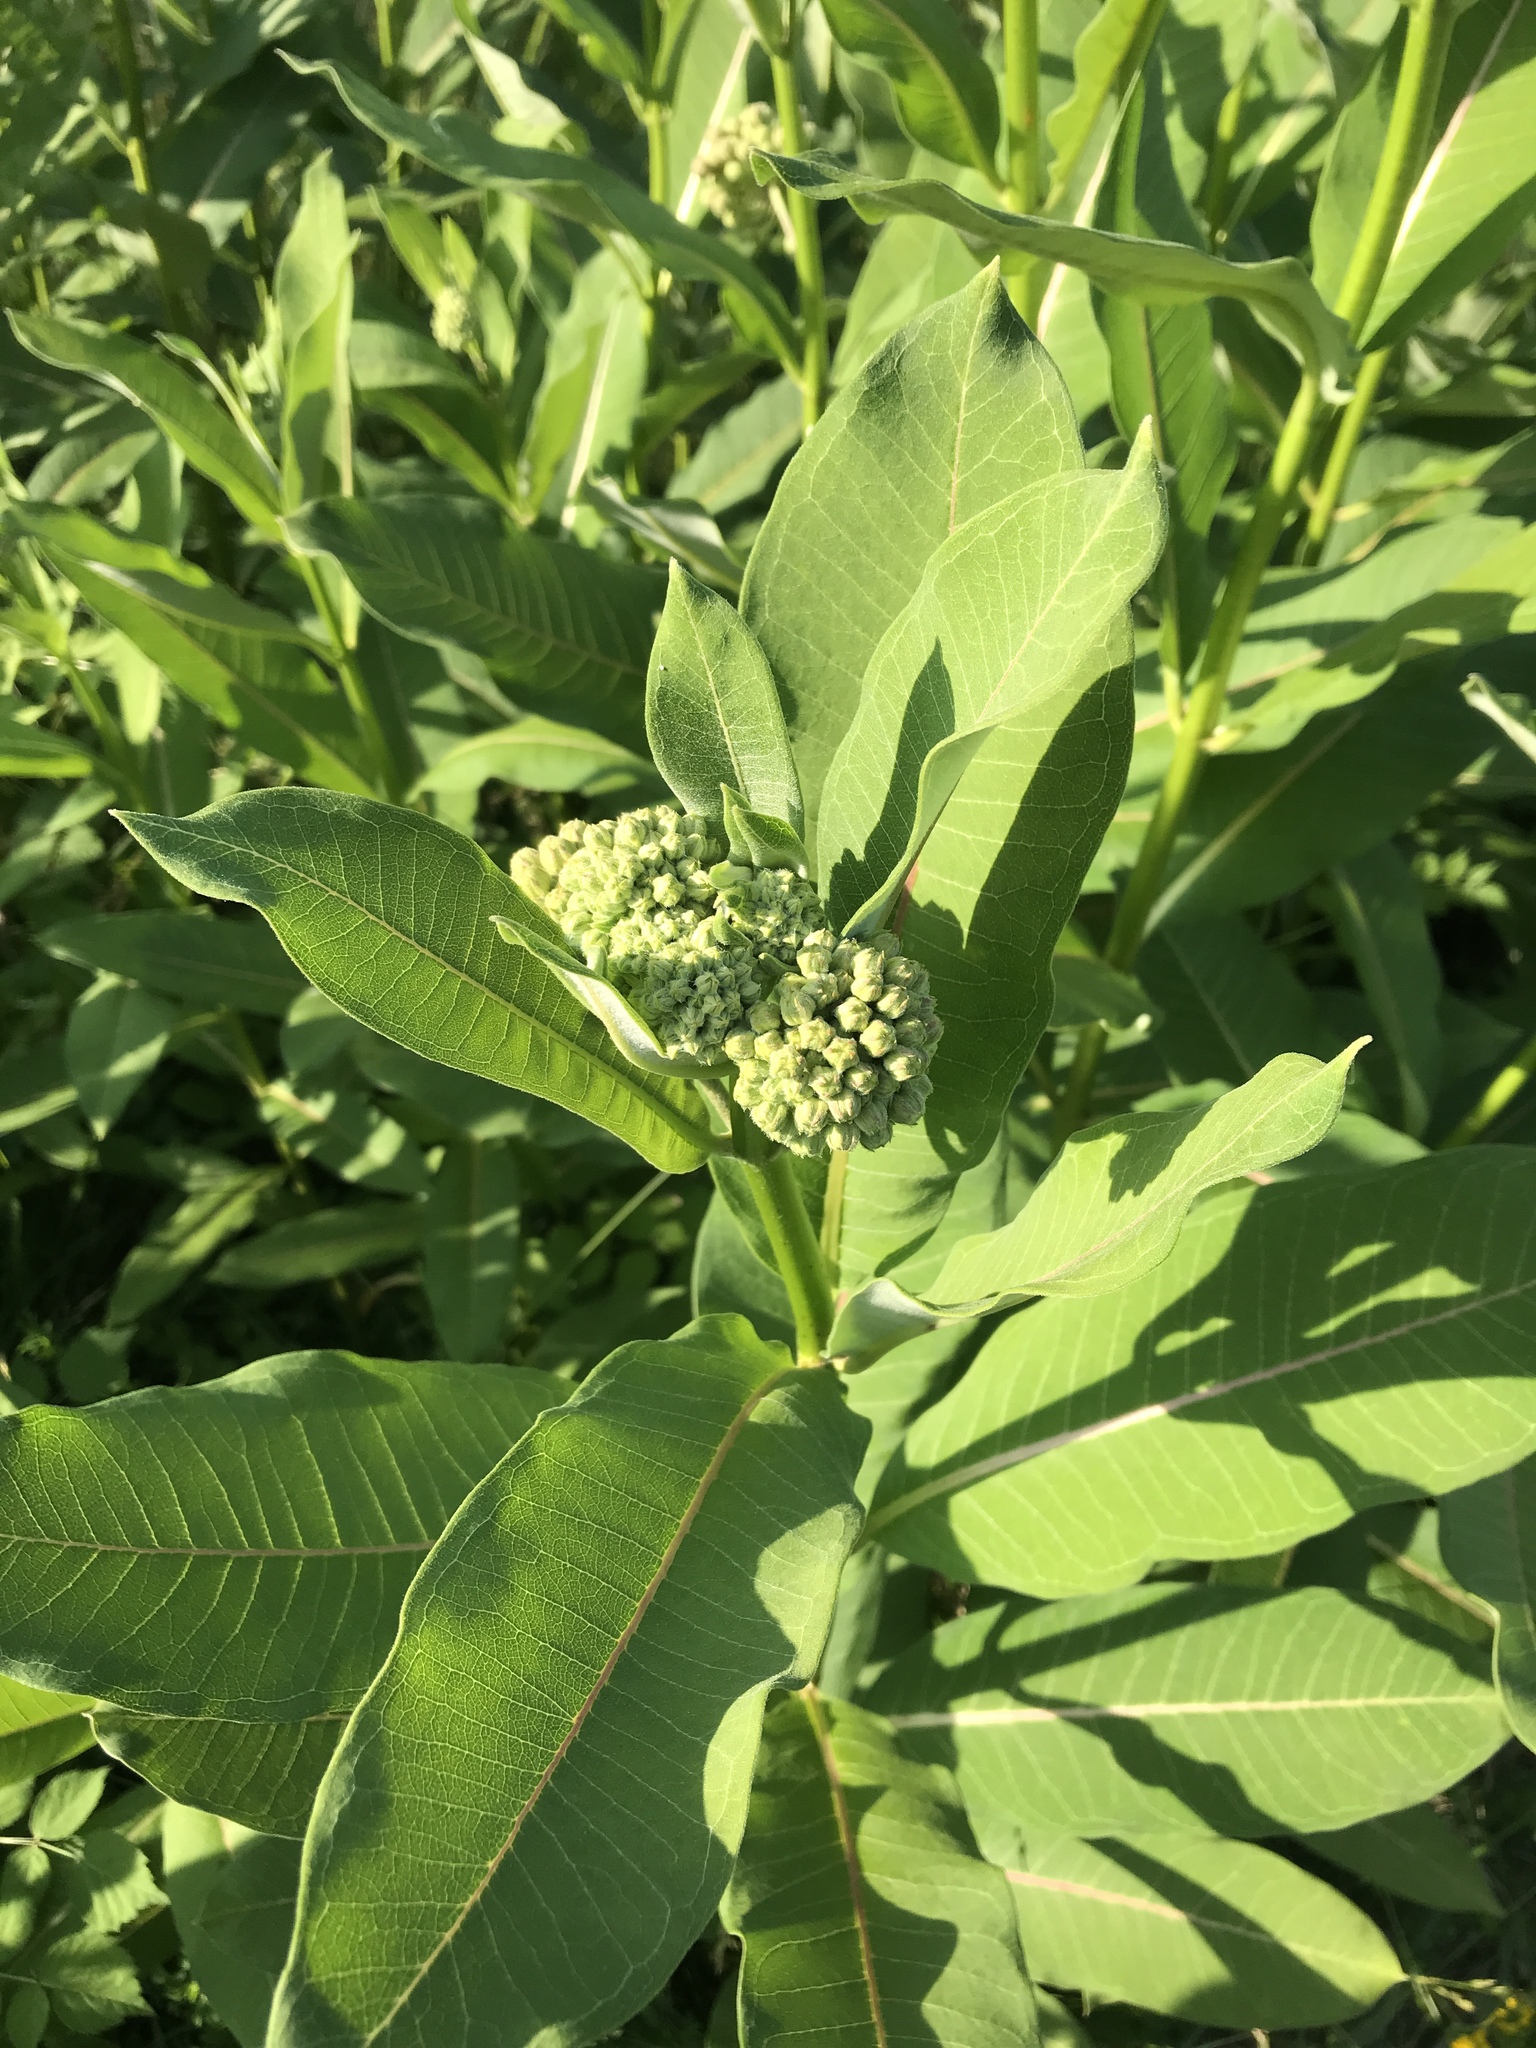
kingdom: Plantae
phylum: Tracheophyta
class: Magnoliopsida
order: Gentianales
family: Apocynaceae
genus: Asclepias
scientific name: Asclepias syriaca
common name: Common milkweed
